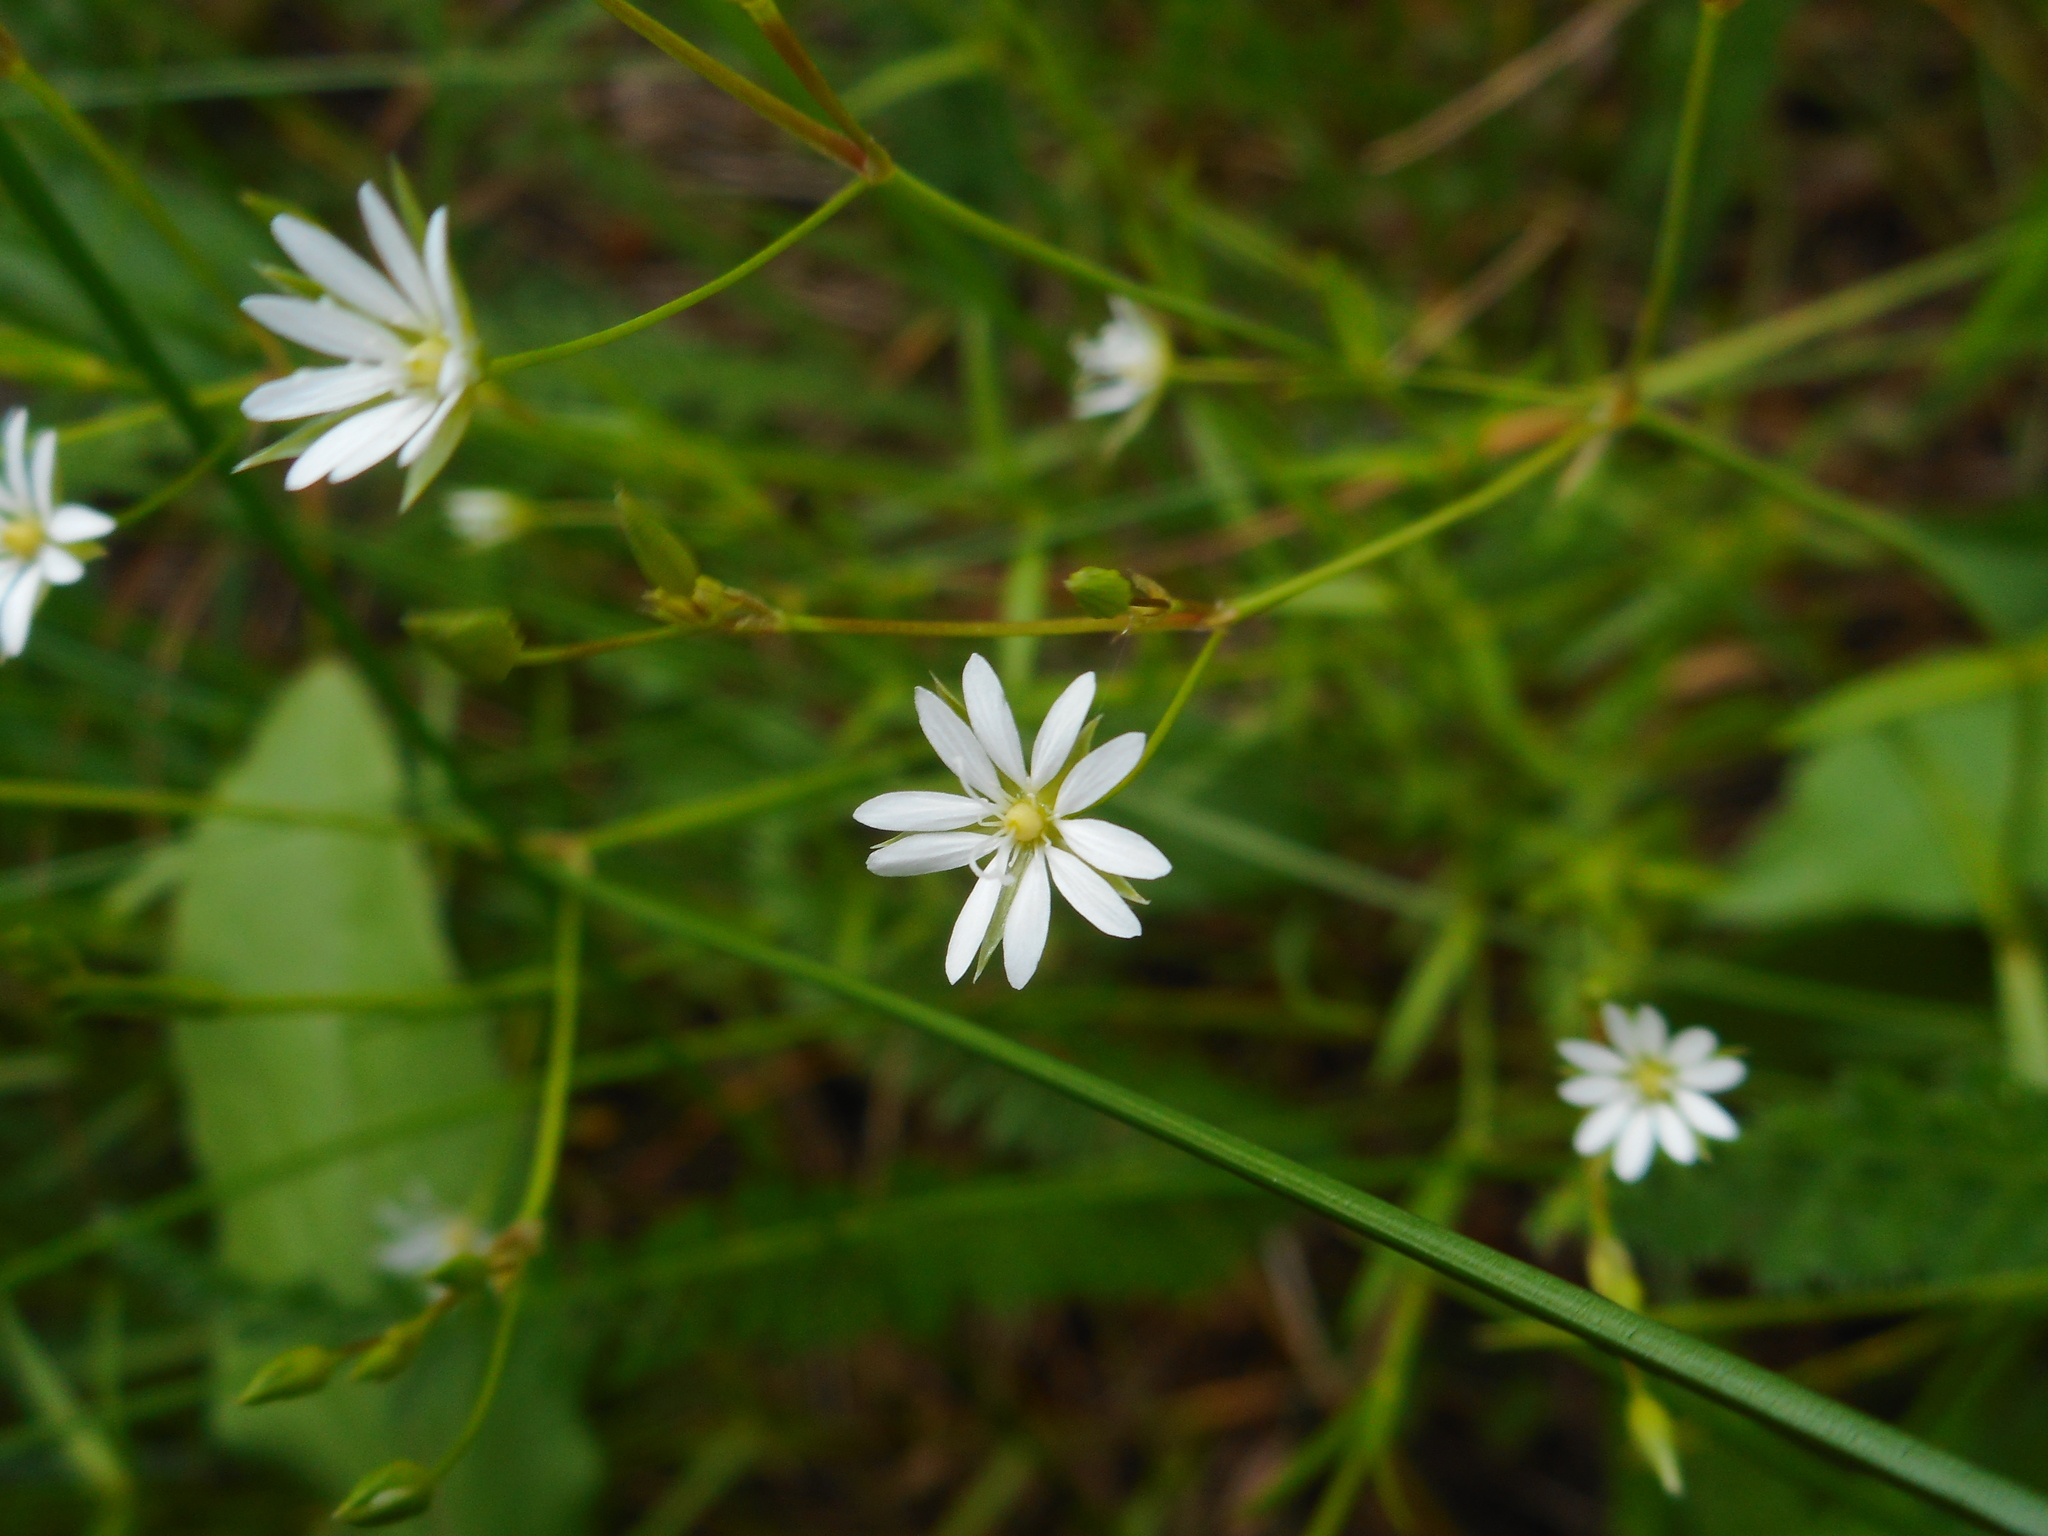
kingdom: Plantae
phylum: Tracheophyta
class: Magnoliopsida
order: Caryophyllales
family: Caryophyllaceae
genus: Stellaria
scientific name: Stellaria graminea
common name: Grass-like starwort
